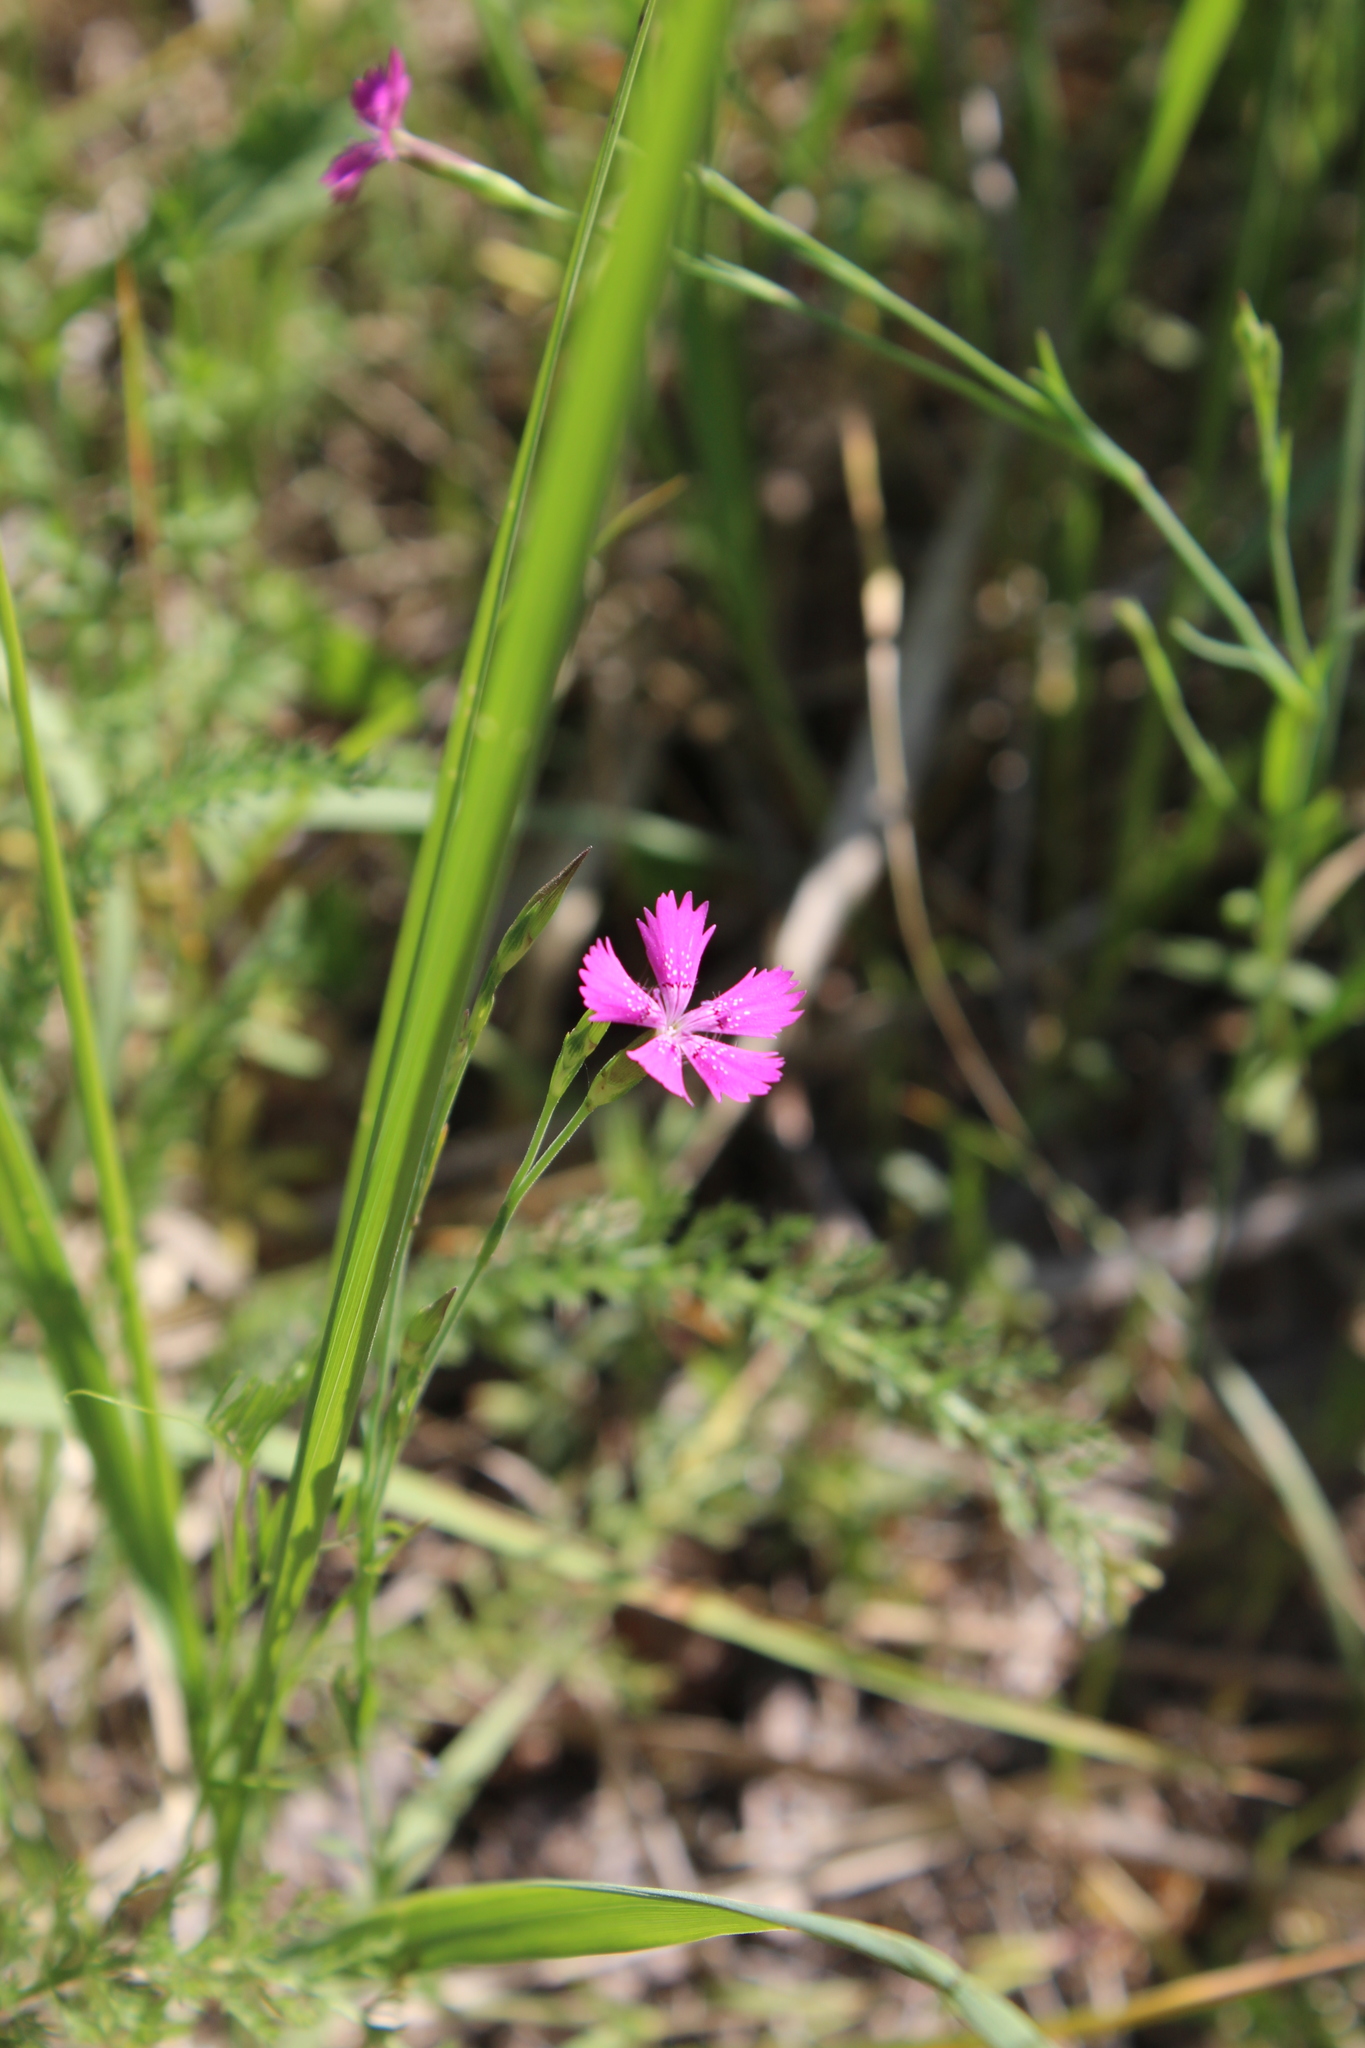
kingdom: Plantae
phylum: Tracheophyta
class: Magnoliopsida
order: Caryophyllales
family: Caryophyllaceae
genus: Dianthus
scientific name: Dianthus deltoides
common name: Maiden pink
